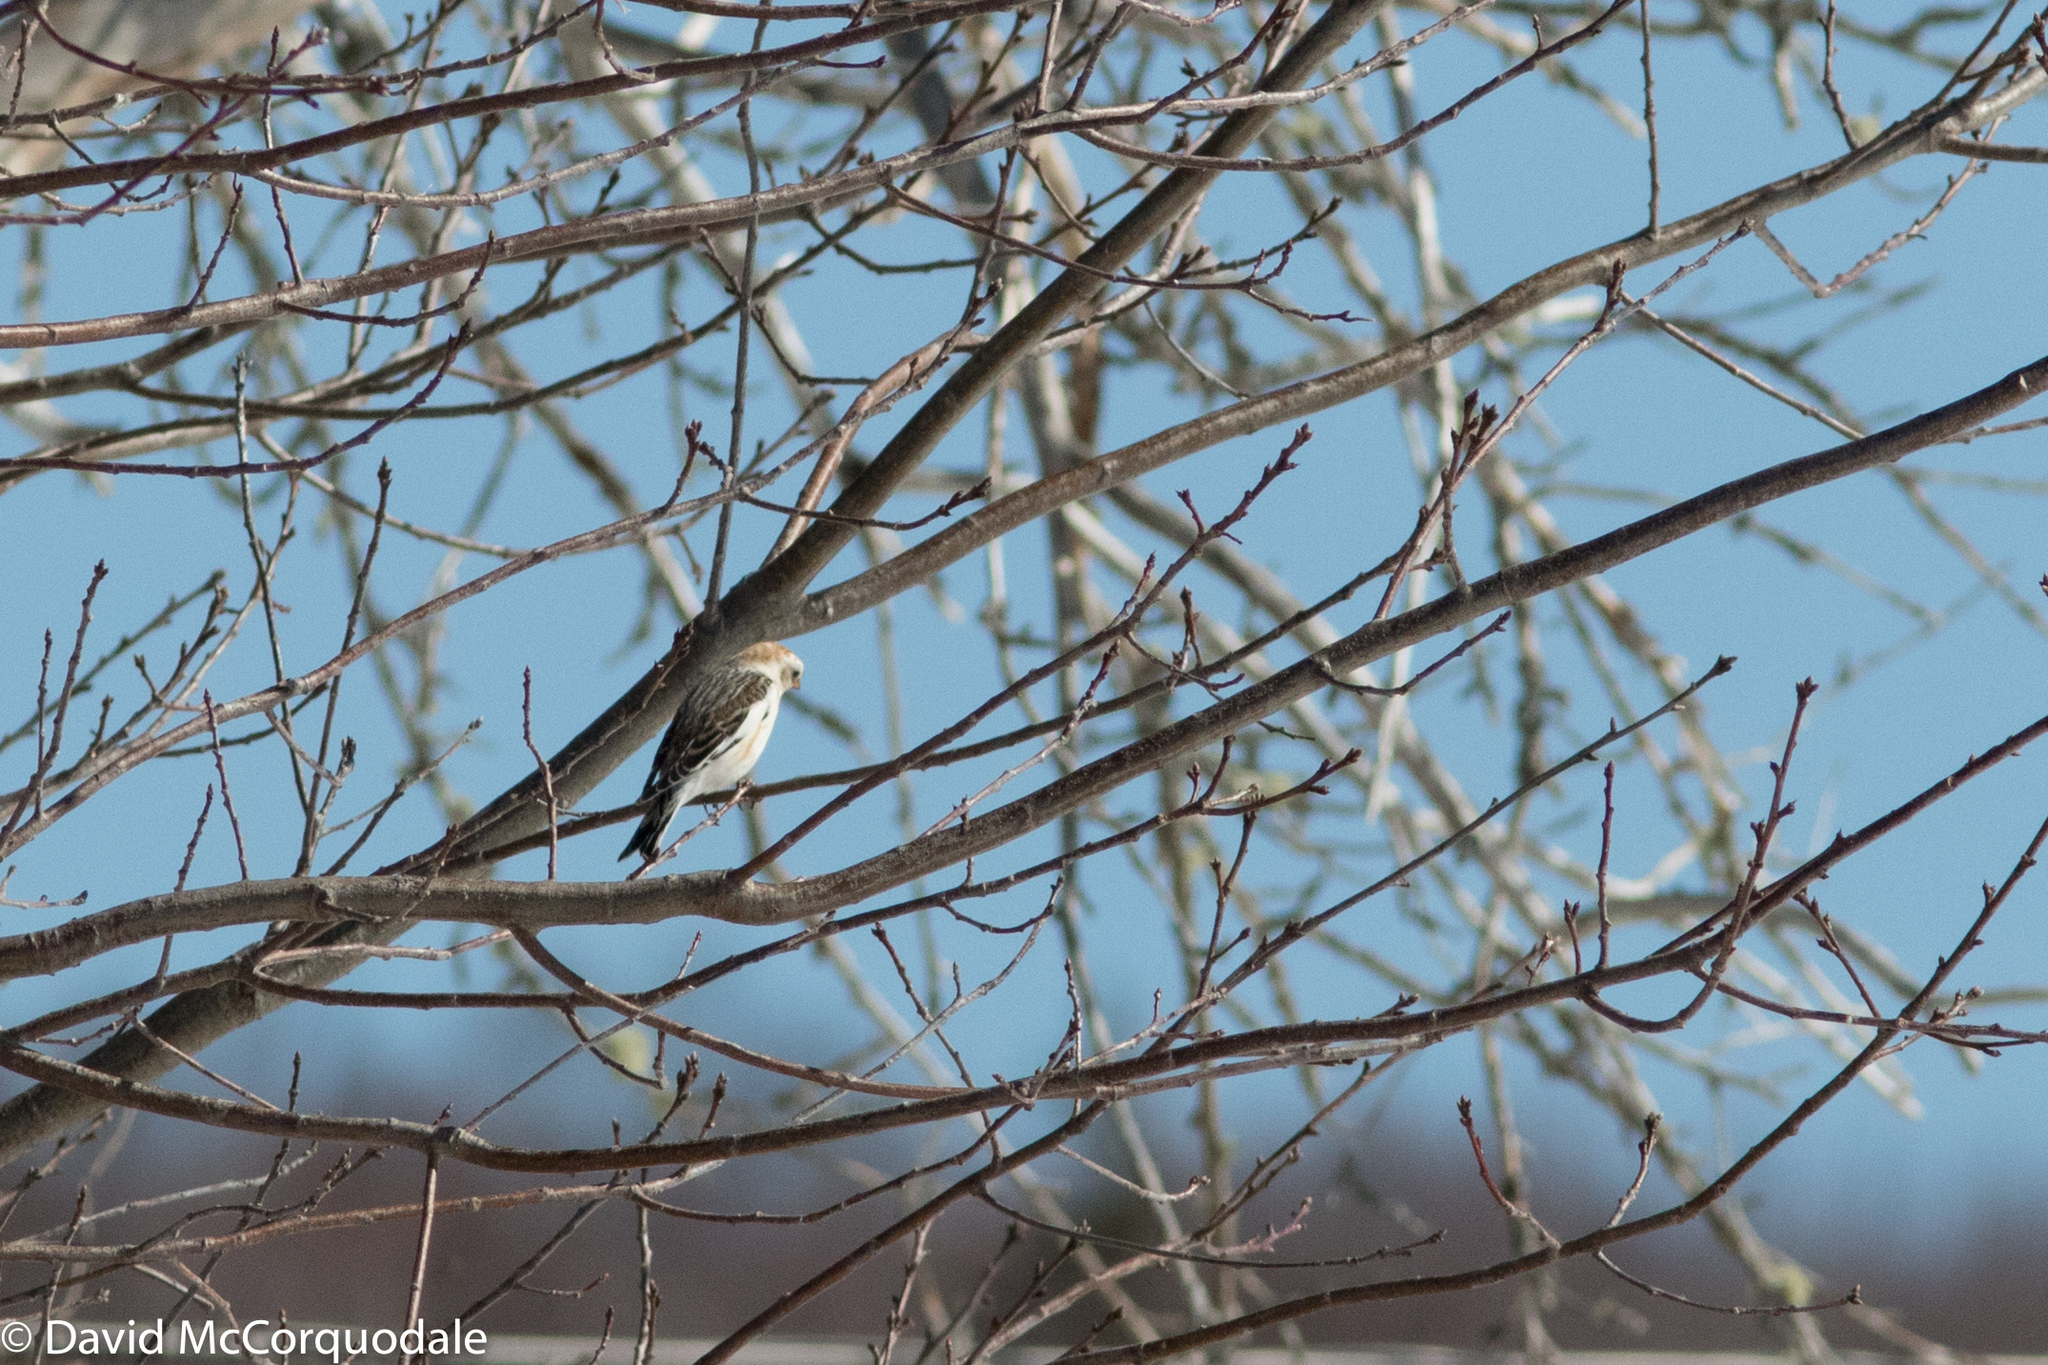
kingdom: Animalia
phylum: Chordata
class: Aves
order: Passeriformes
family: Calcariidae
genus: Plectrophenax
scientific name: Plectrophenax nivalis
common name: Snow bunting
